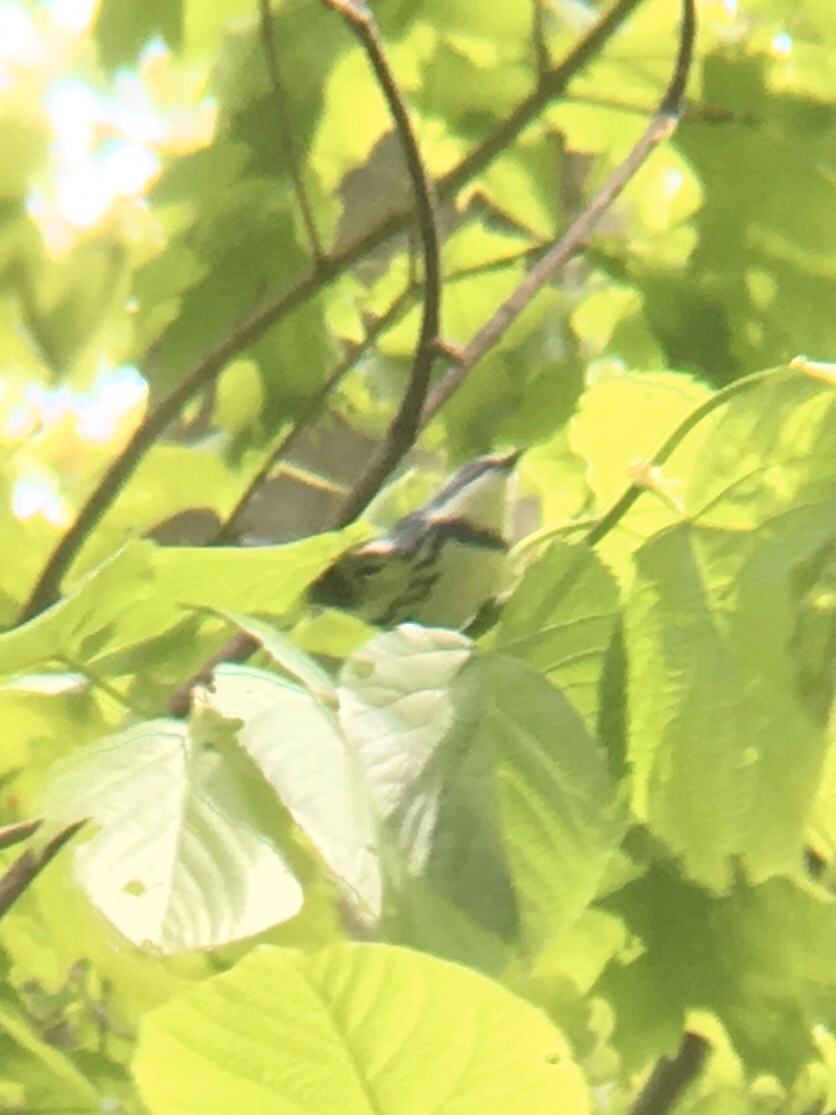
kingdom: Animalia
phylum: Chordata
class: Aves
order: Passeriformes
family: Parulidae
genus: Setophaga
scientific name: Setophaga cerulea
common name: Cerulean warbler
